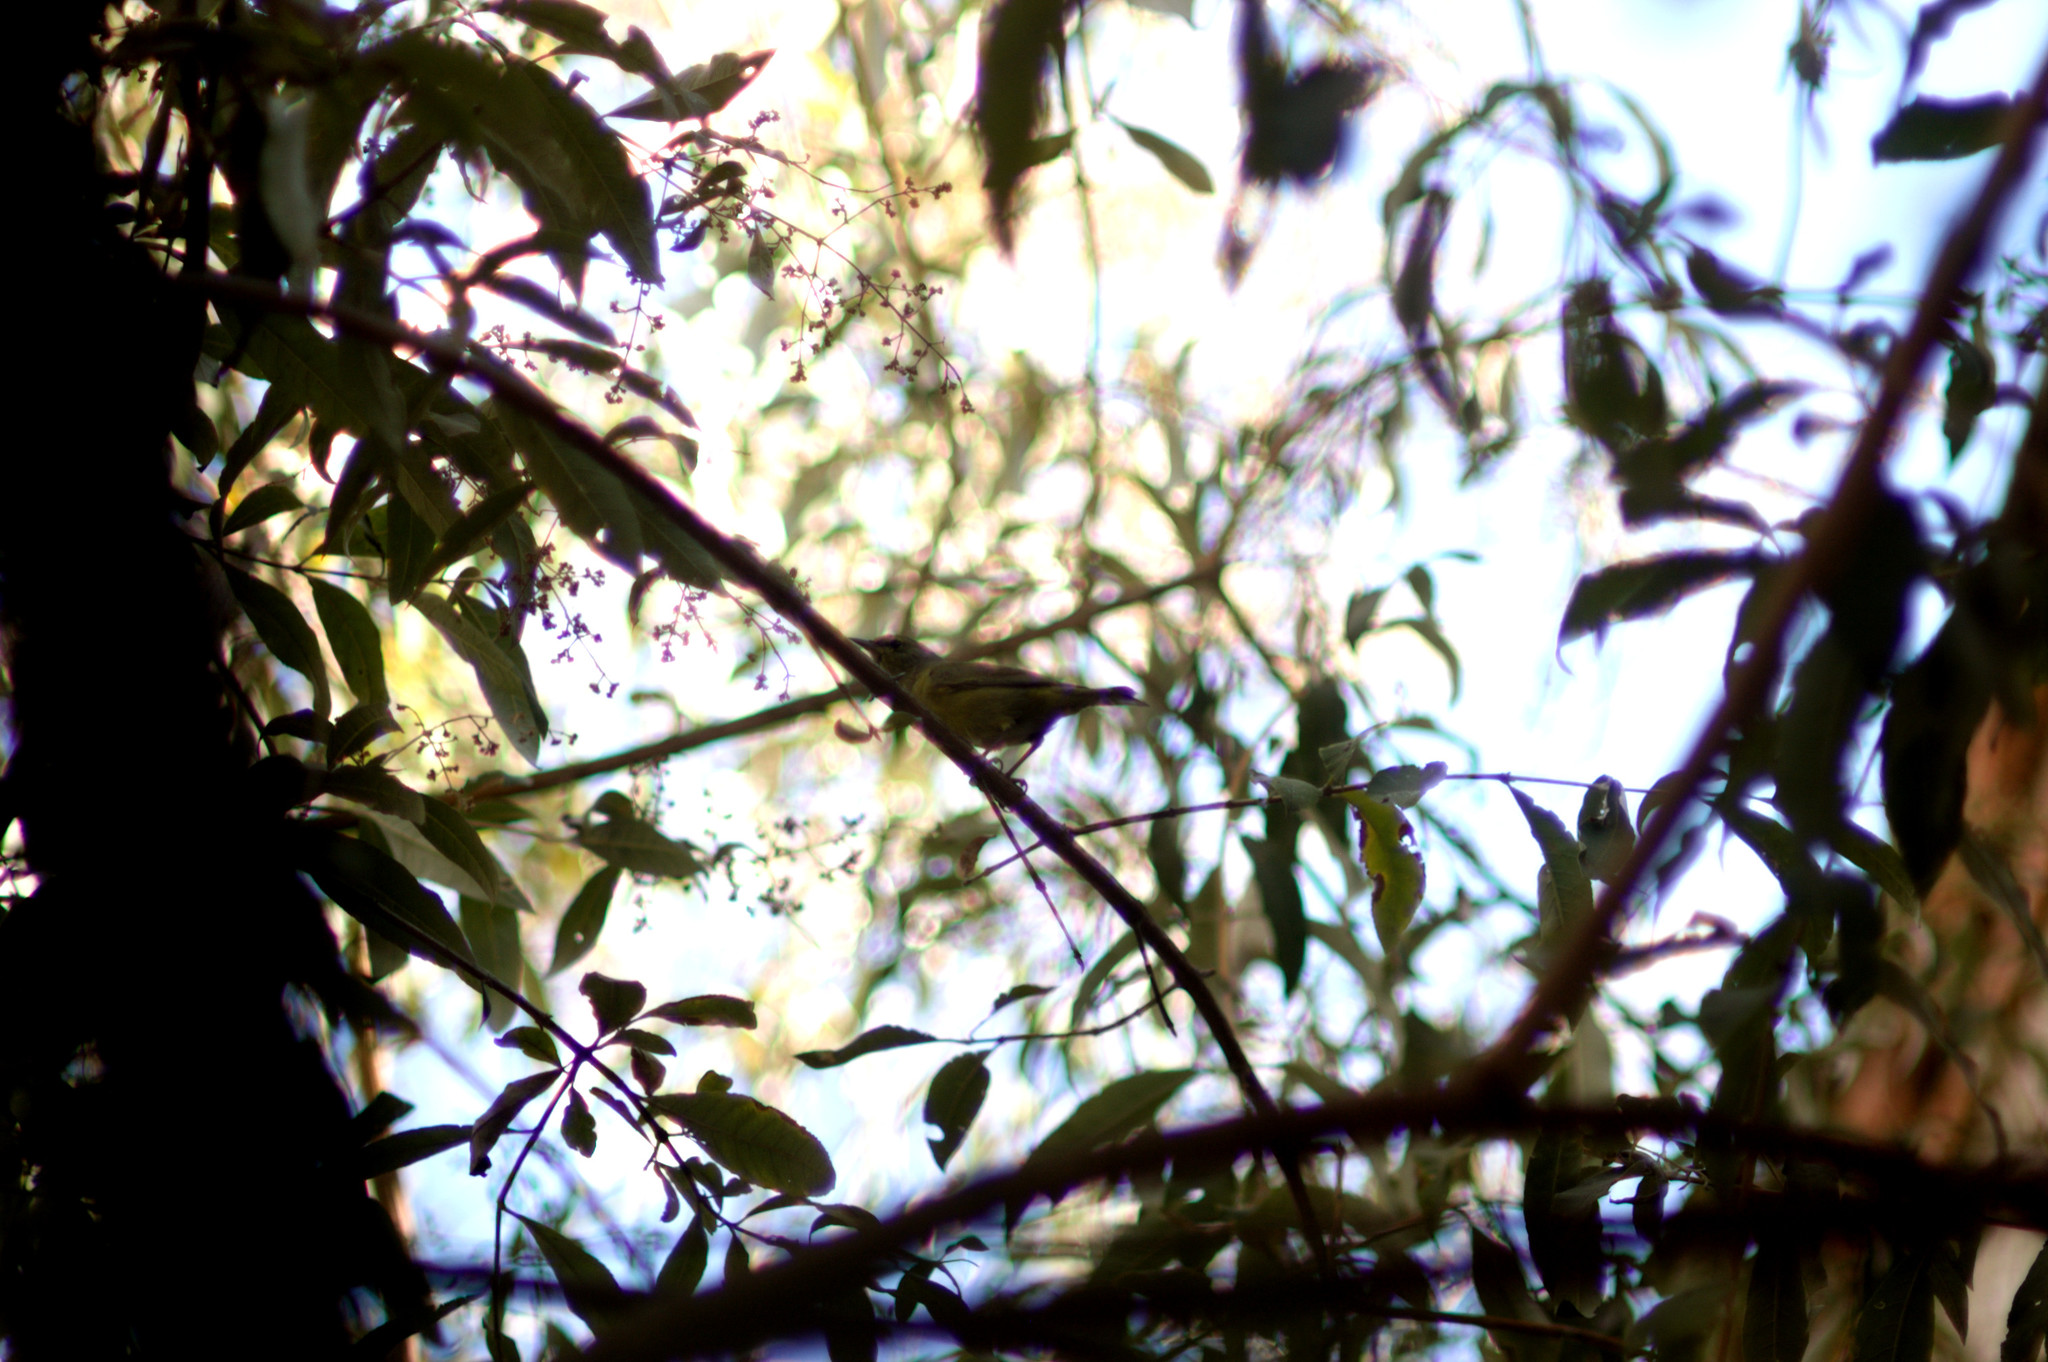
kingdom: Animalia
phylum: Chordata
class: Aves
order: Passeriformes
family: Parulidae
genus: Leiothlypis
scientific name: Leiothlypis celata
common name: Orange-crowned warbler
